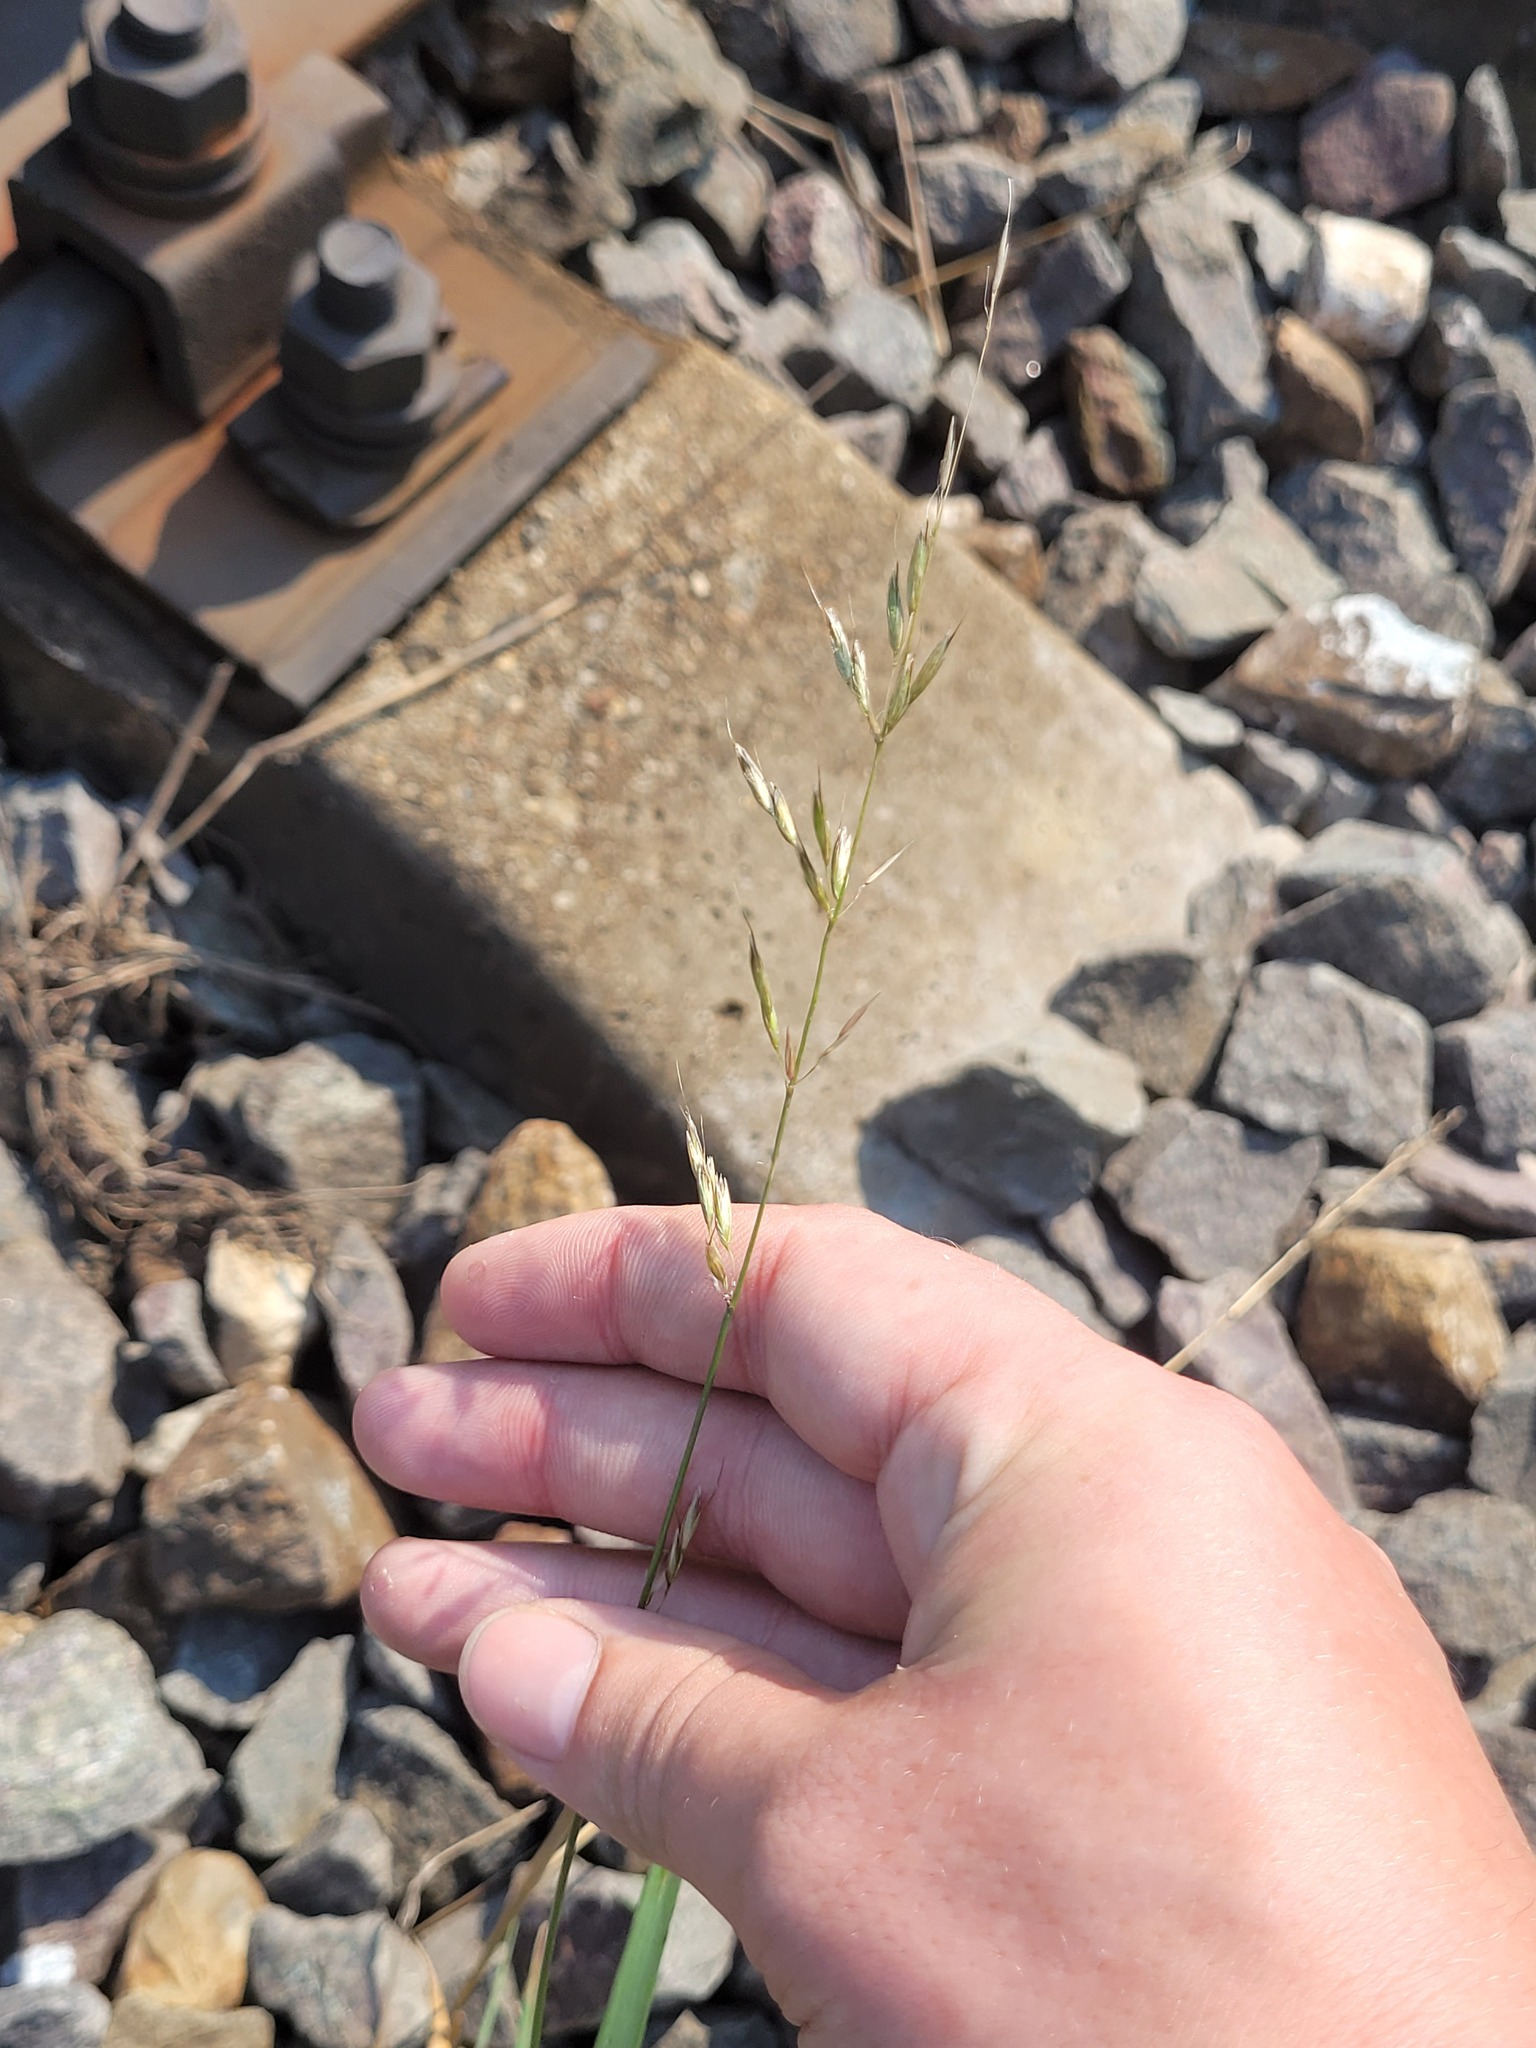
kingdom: Plantae
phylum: Tracheophyta
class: Liliopsida
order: Poales
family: Poaceae
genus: Arrhenatherum
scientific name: Arrhenatherum elatius
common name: Tall oatgrass
